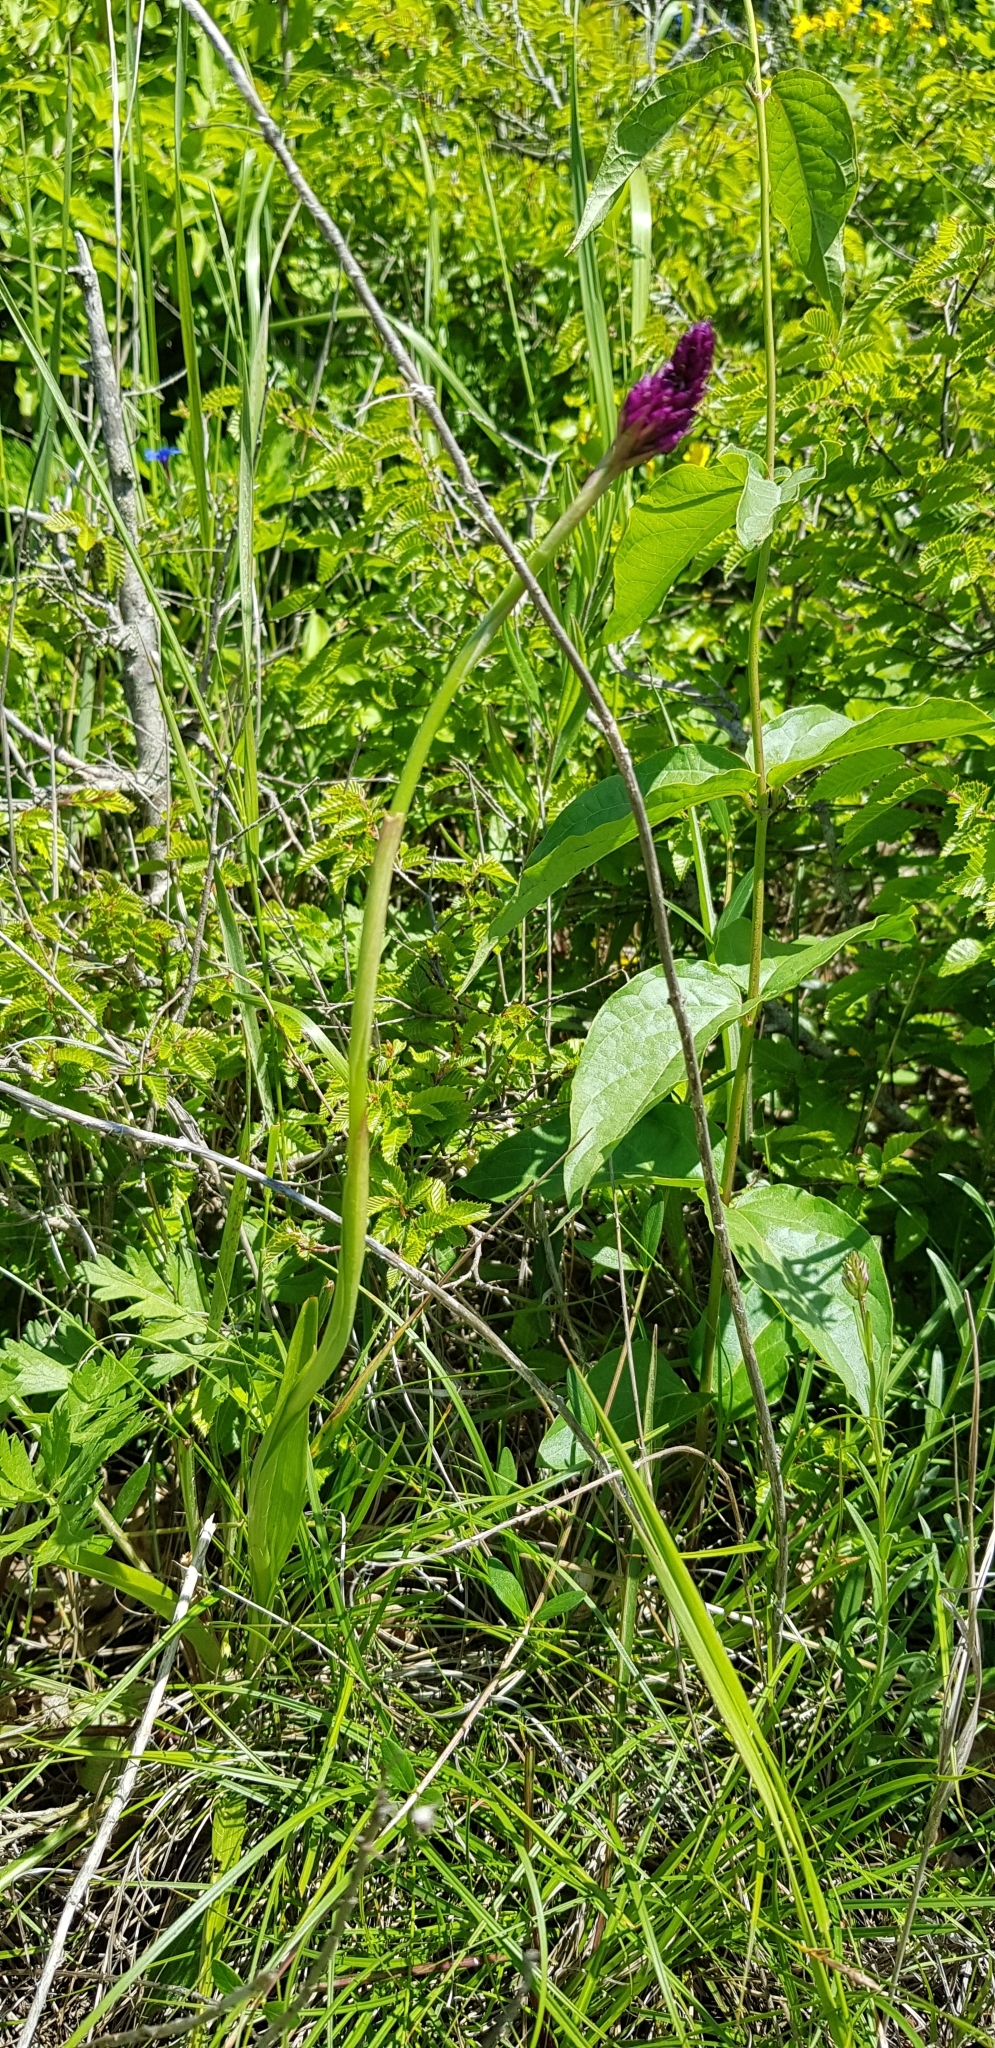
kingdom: Plantae
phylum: Tracheophyta
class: Liliopsida
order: Asparagales
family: Orchidaceae
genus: Anacamptis
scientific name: Anacamptis pyramidalis
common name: Pyramidal orchid
